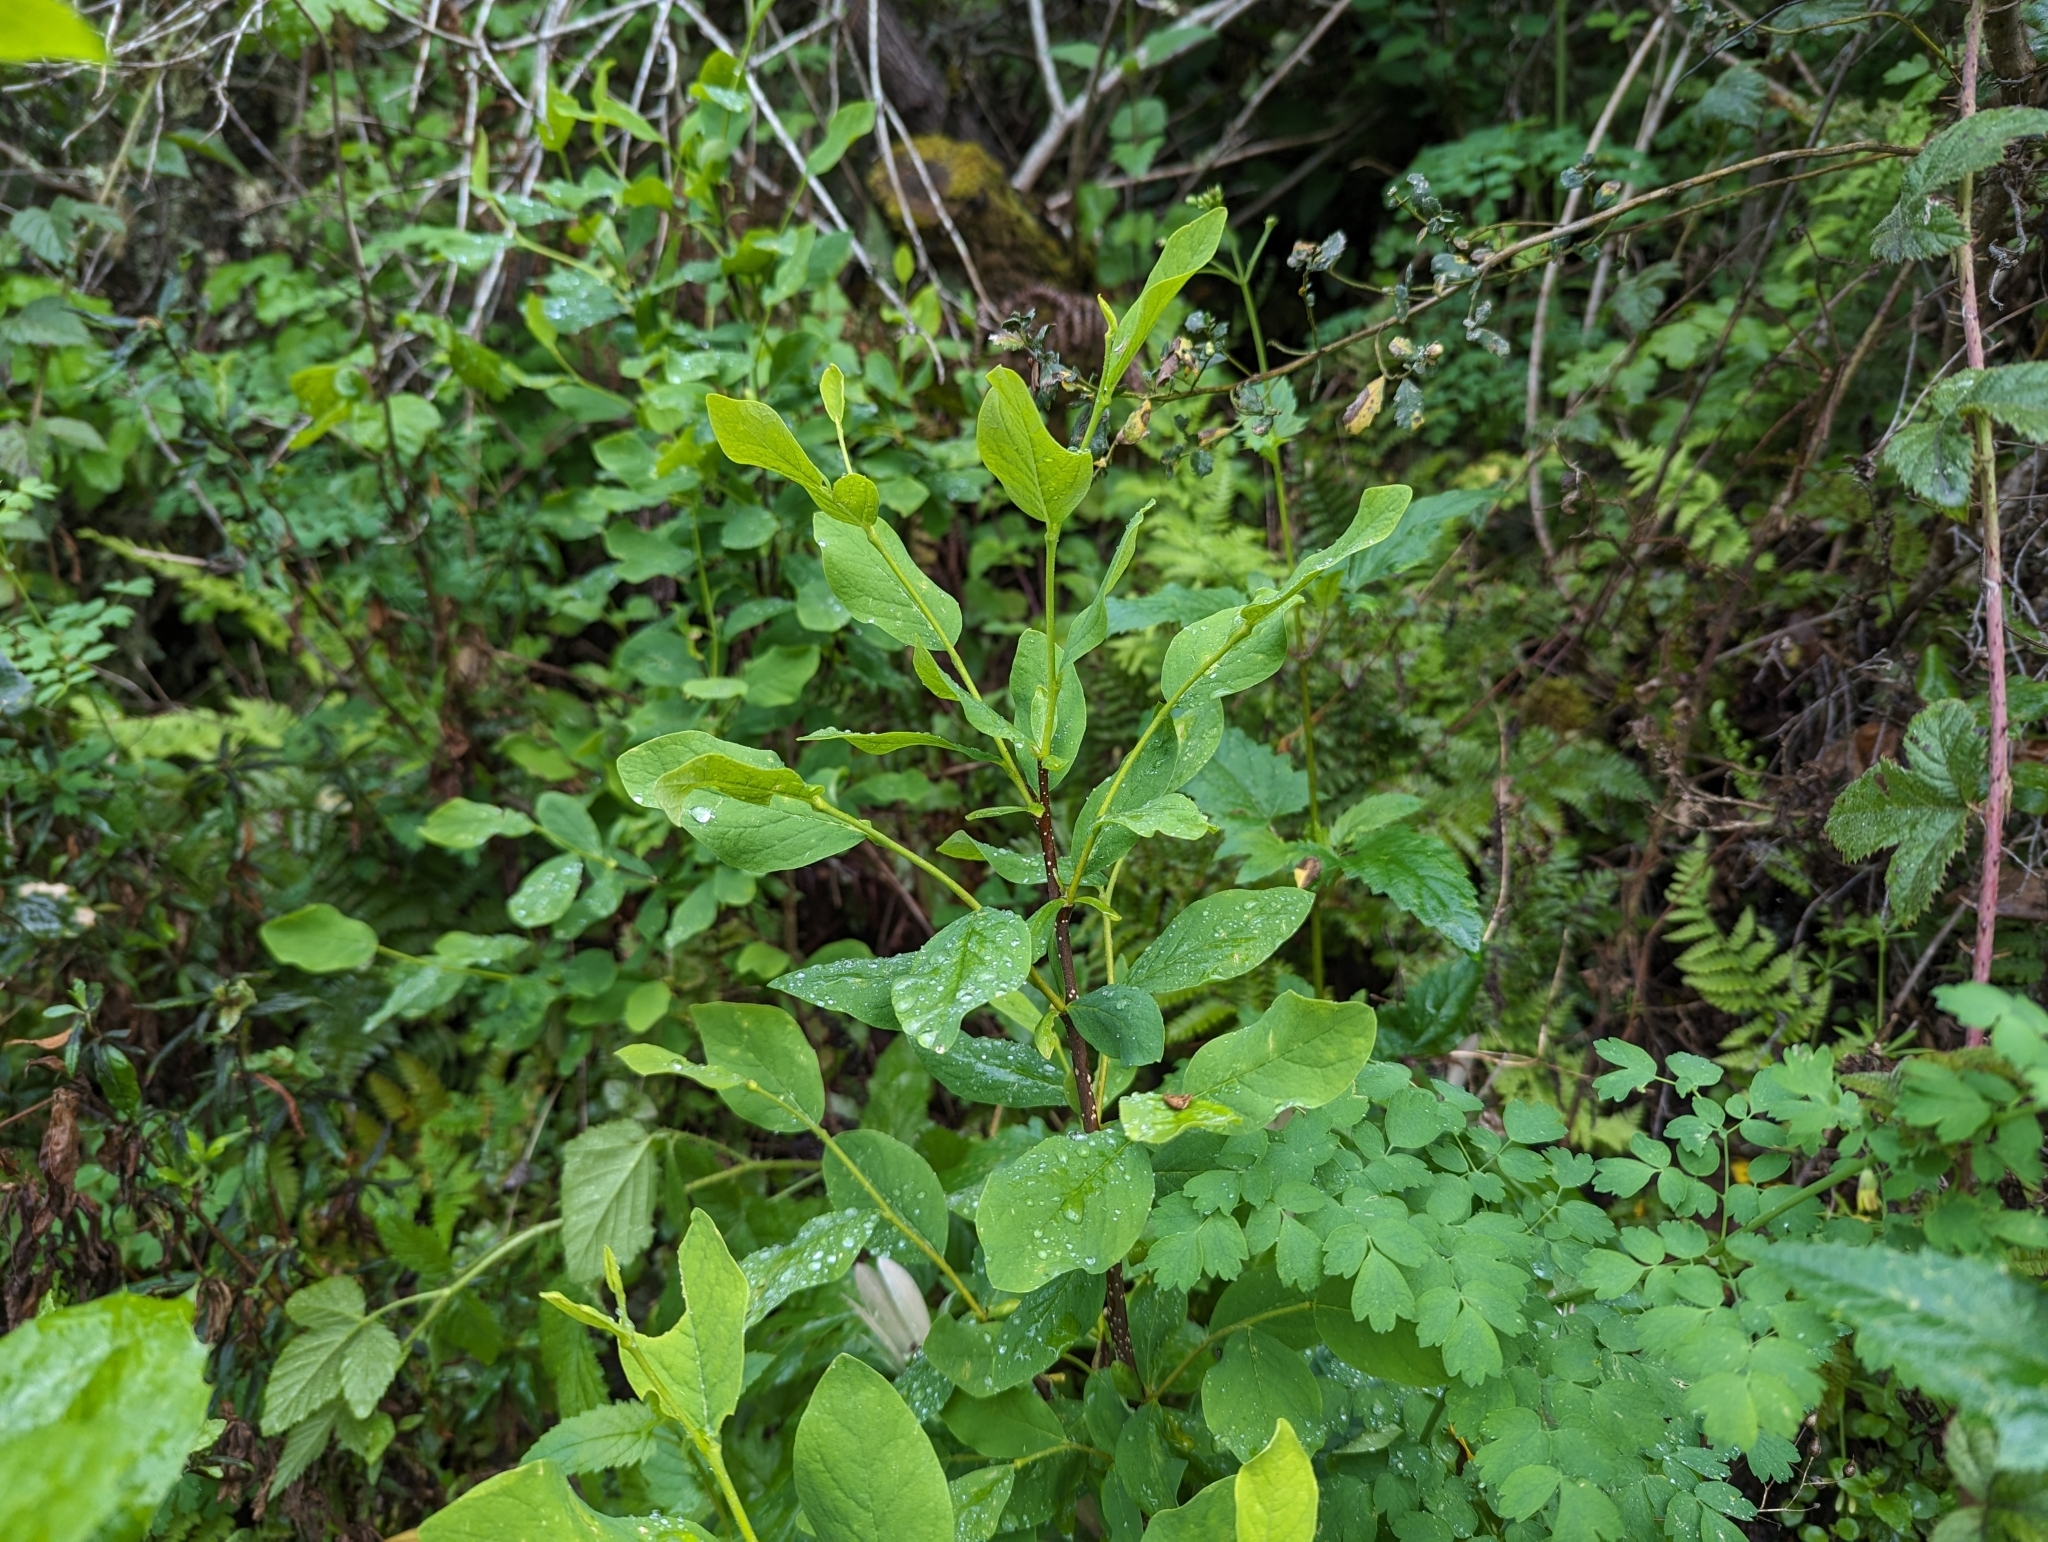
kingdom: Plantae
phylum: Tracheophyta
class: Magnoliopsida
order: Malvales
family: Thymelaeaceae
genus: Dirca
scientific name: Dirca occidentalis
